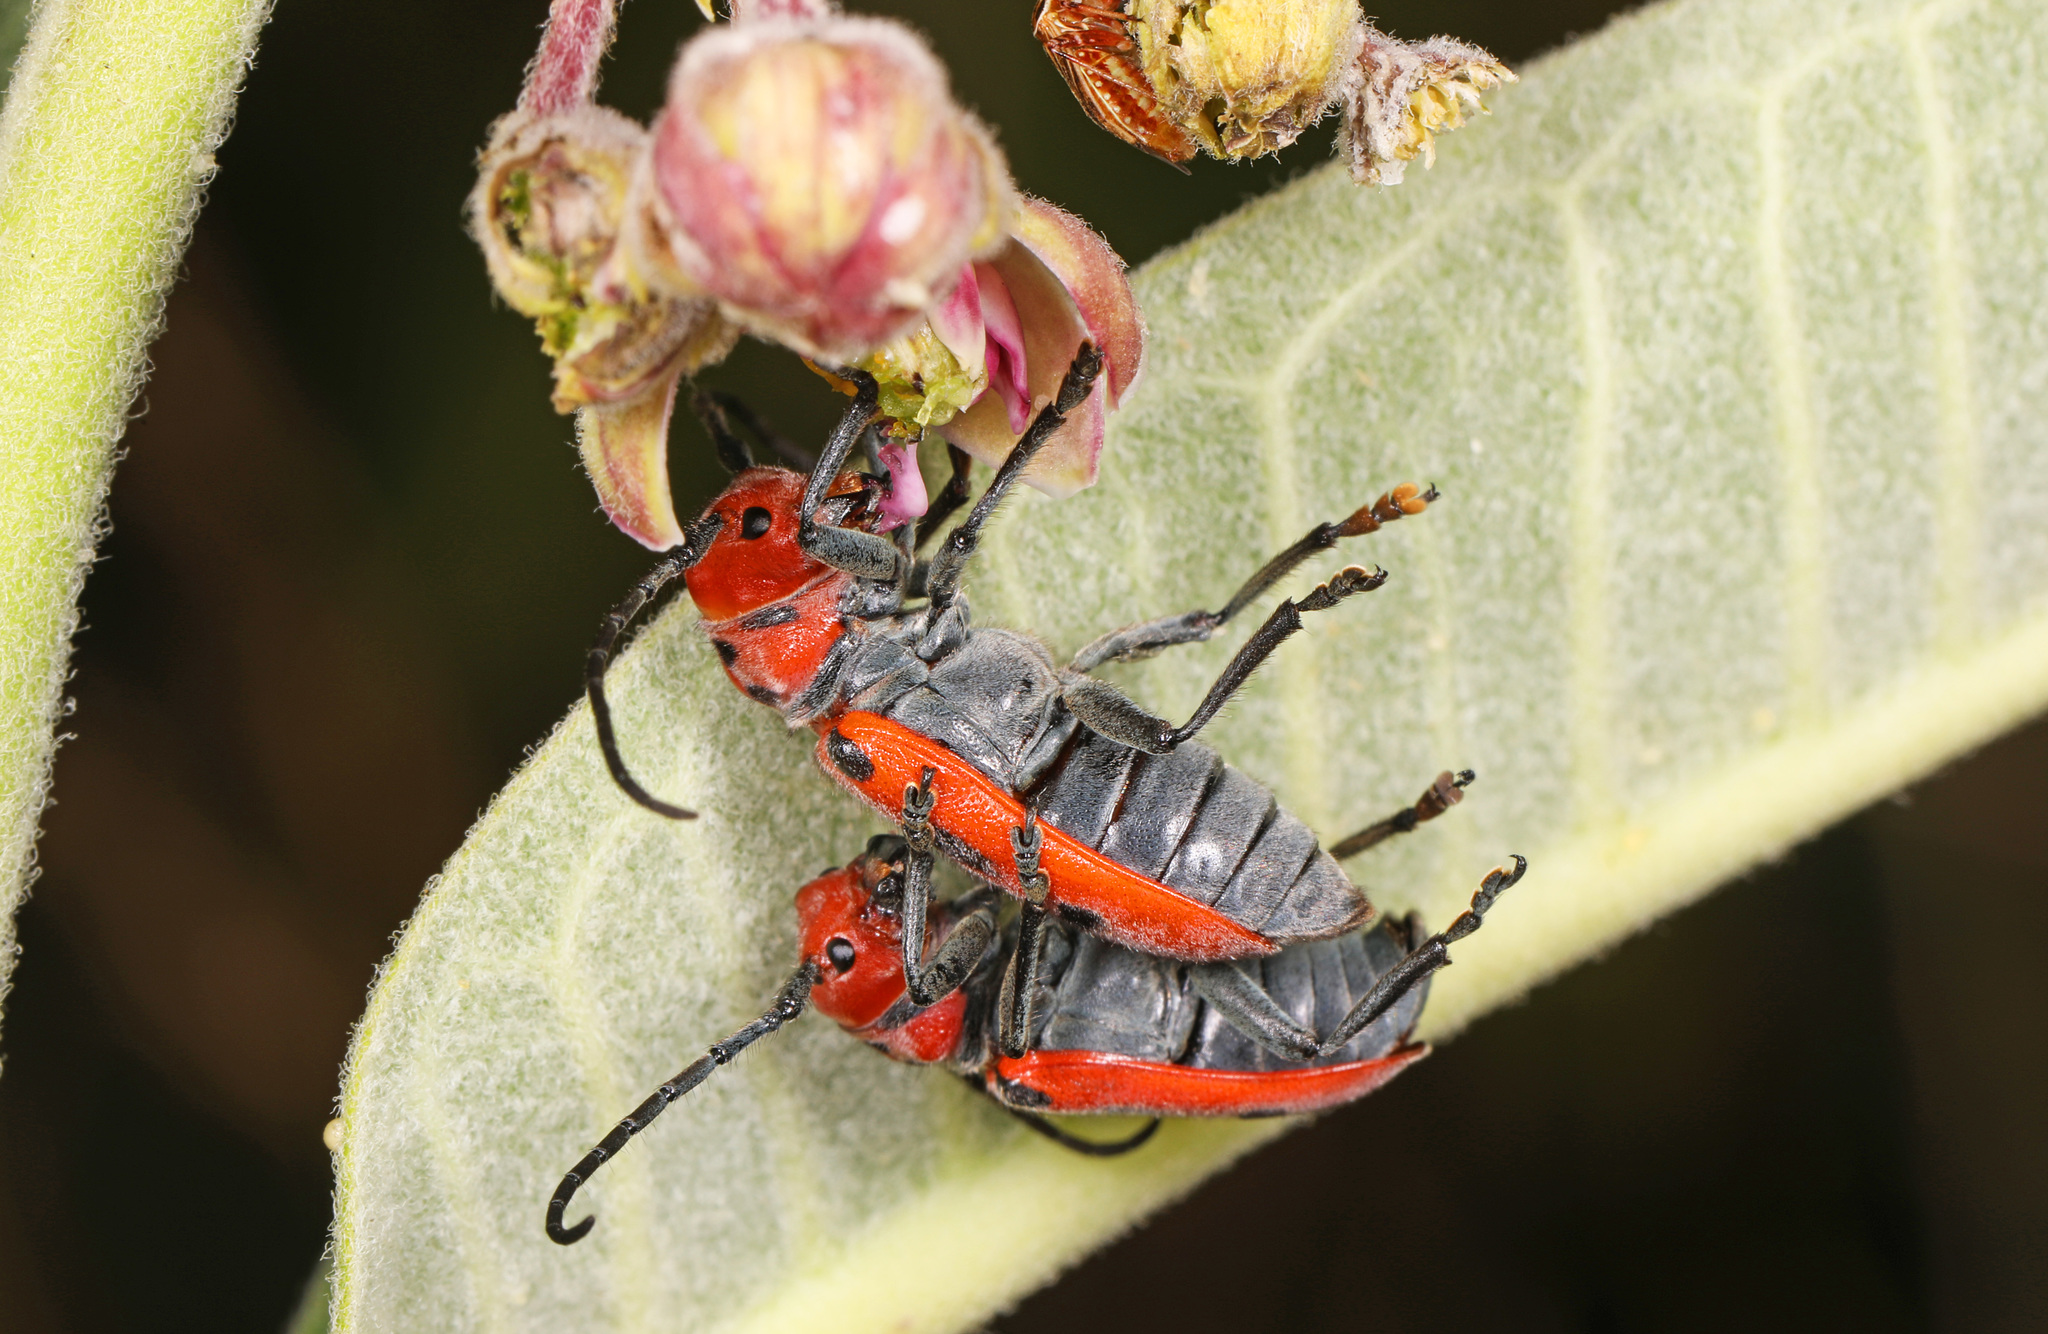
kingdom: Animalia
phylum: Arthropoda
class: Insecta
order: Coleoptera
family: Cerambycidae
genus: Tetraopes
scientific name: Tetraopes tetrophthalmus
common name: Red milkweed beetle
